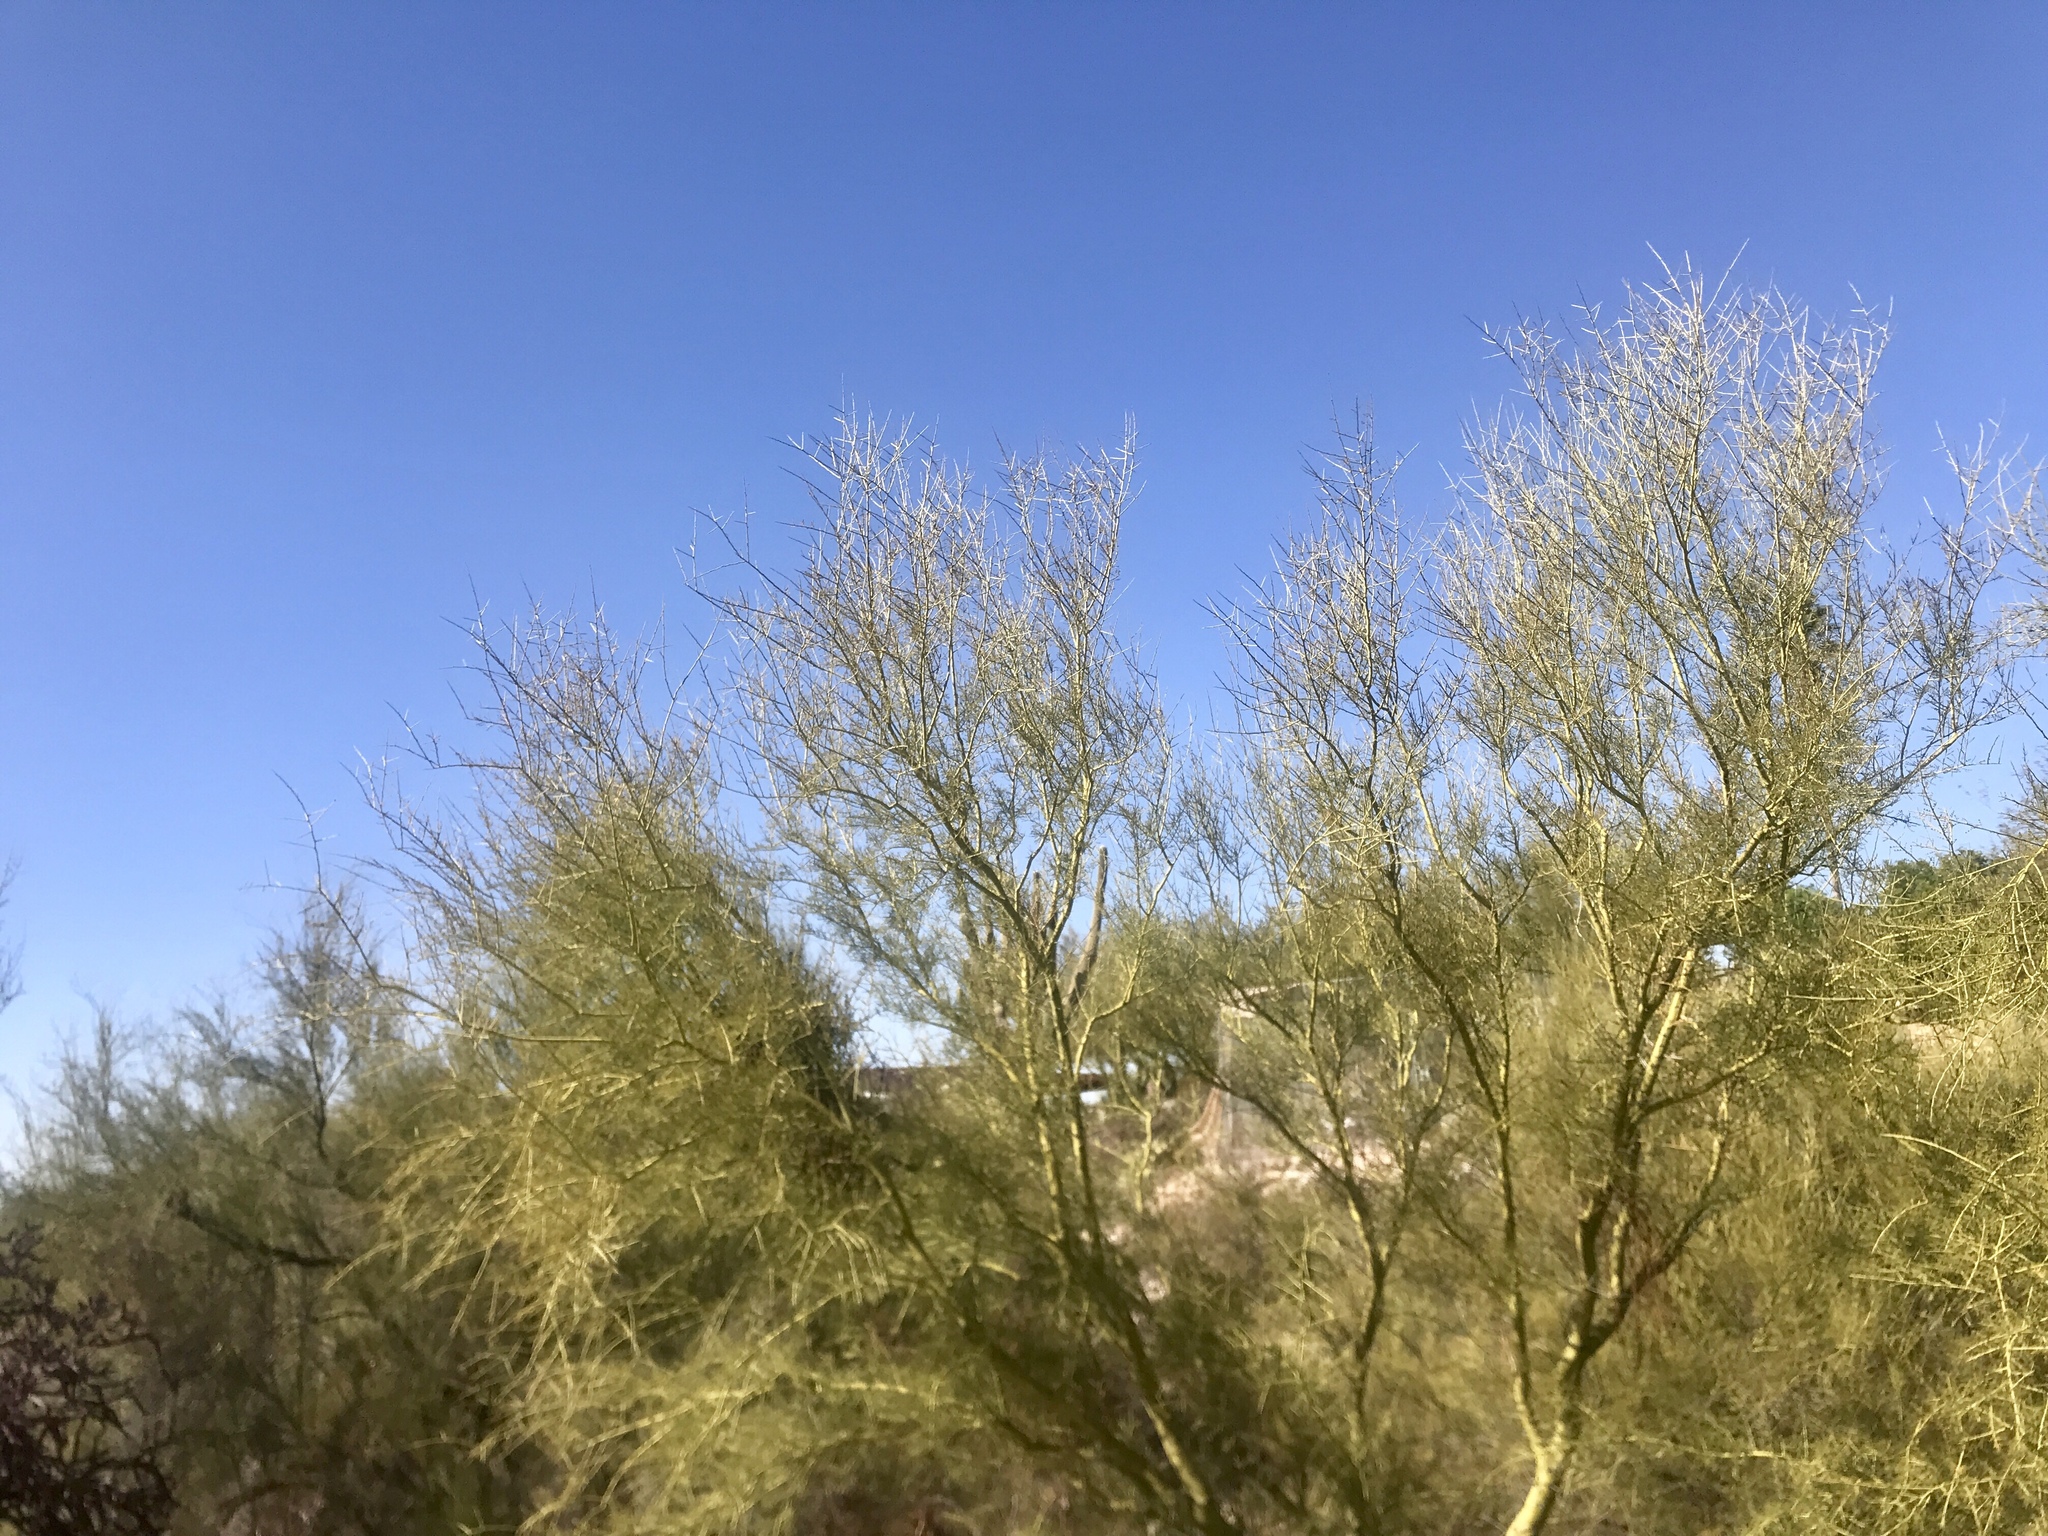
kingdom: Plantae
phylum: Tracheophyta
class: Magnoliopsida
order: Fabales
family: Fabaceae
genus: Parkinsonia
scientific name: Parkinsonia microphylla
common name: Yellow paloverde
